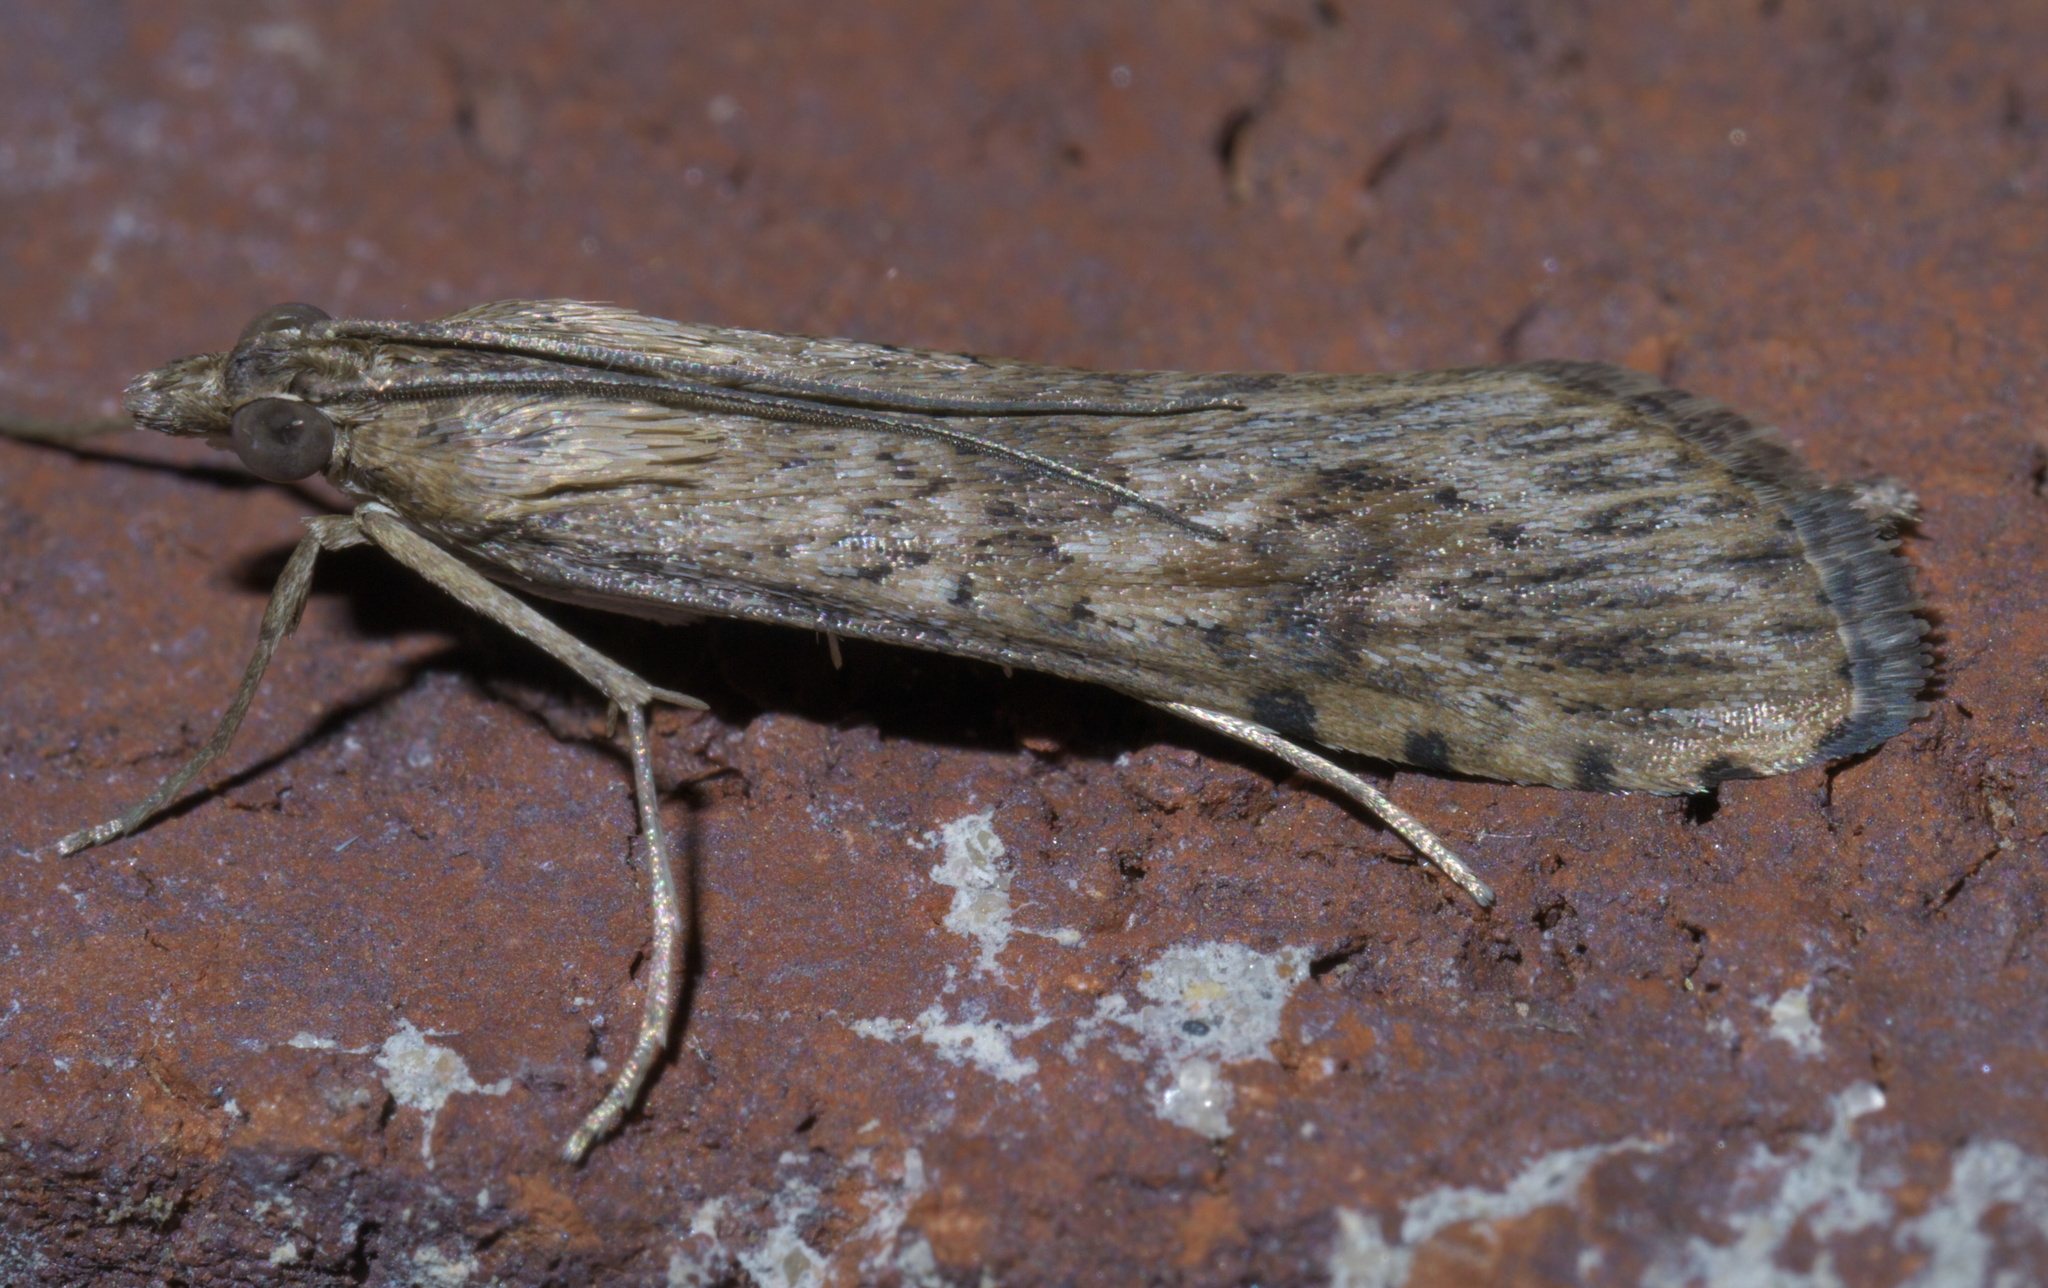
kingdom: Animalia
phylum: Arthropoda
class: Insecta
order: Lepidoptera
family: Crambidae
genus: Nomophila
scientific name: Nomophila nearctica
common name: American rush veneer
